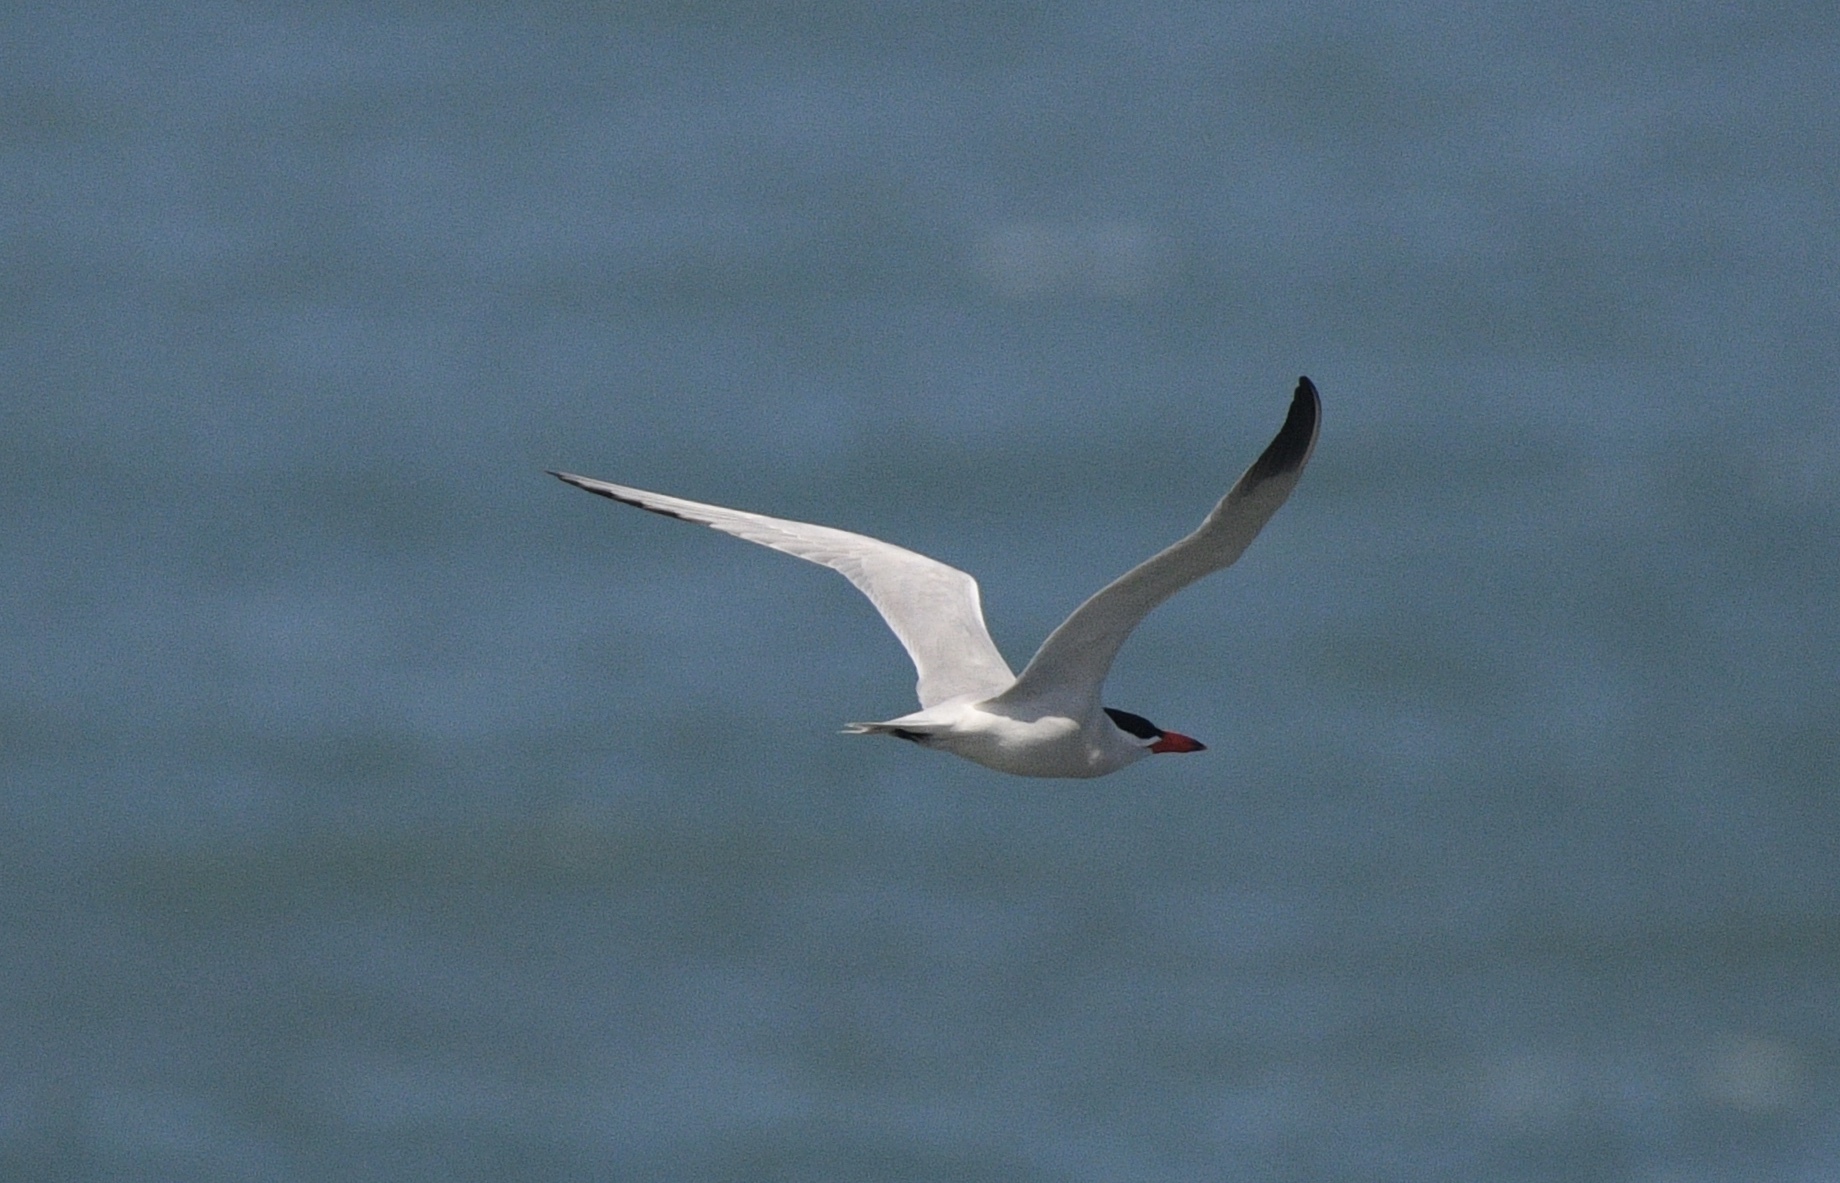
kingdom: Animalia
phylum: Chordata
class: Aves
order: Charadriiformes
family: Laridae
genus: Hydroprogne
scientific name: Hydroprogne caspia
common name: Caspian tern
